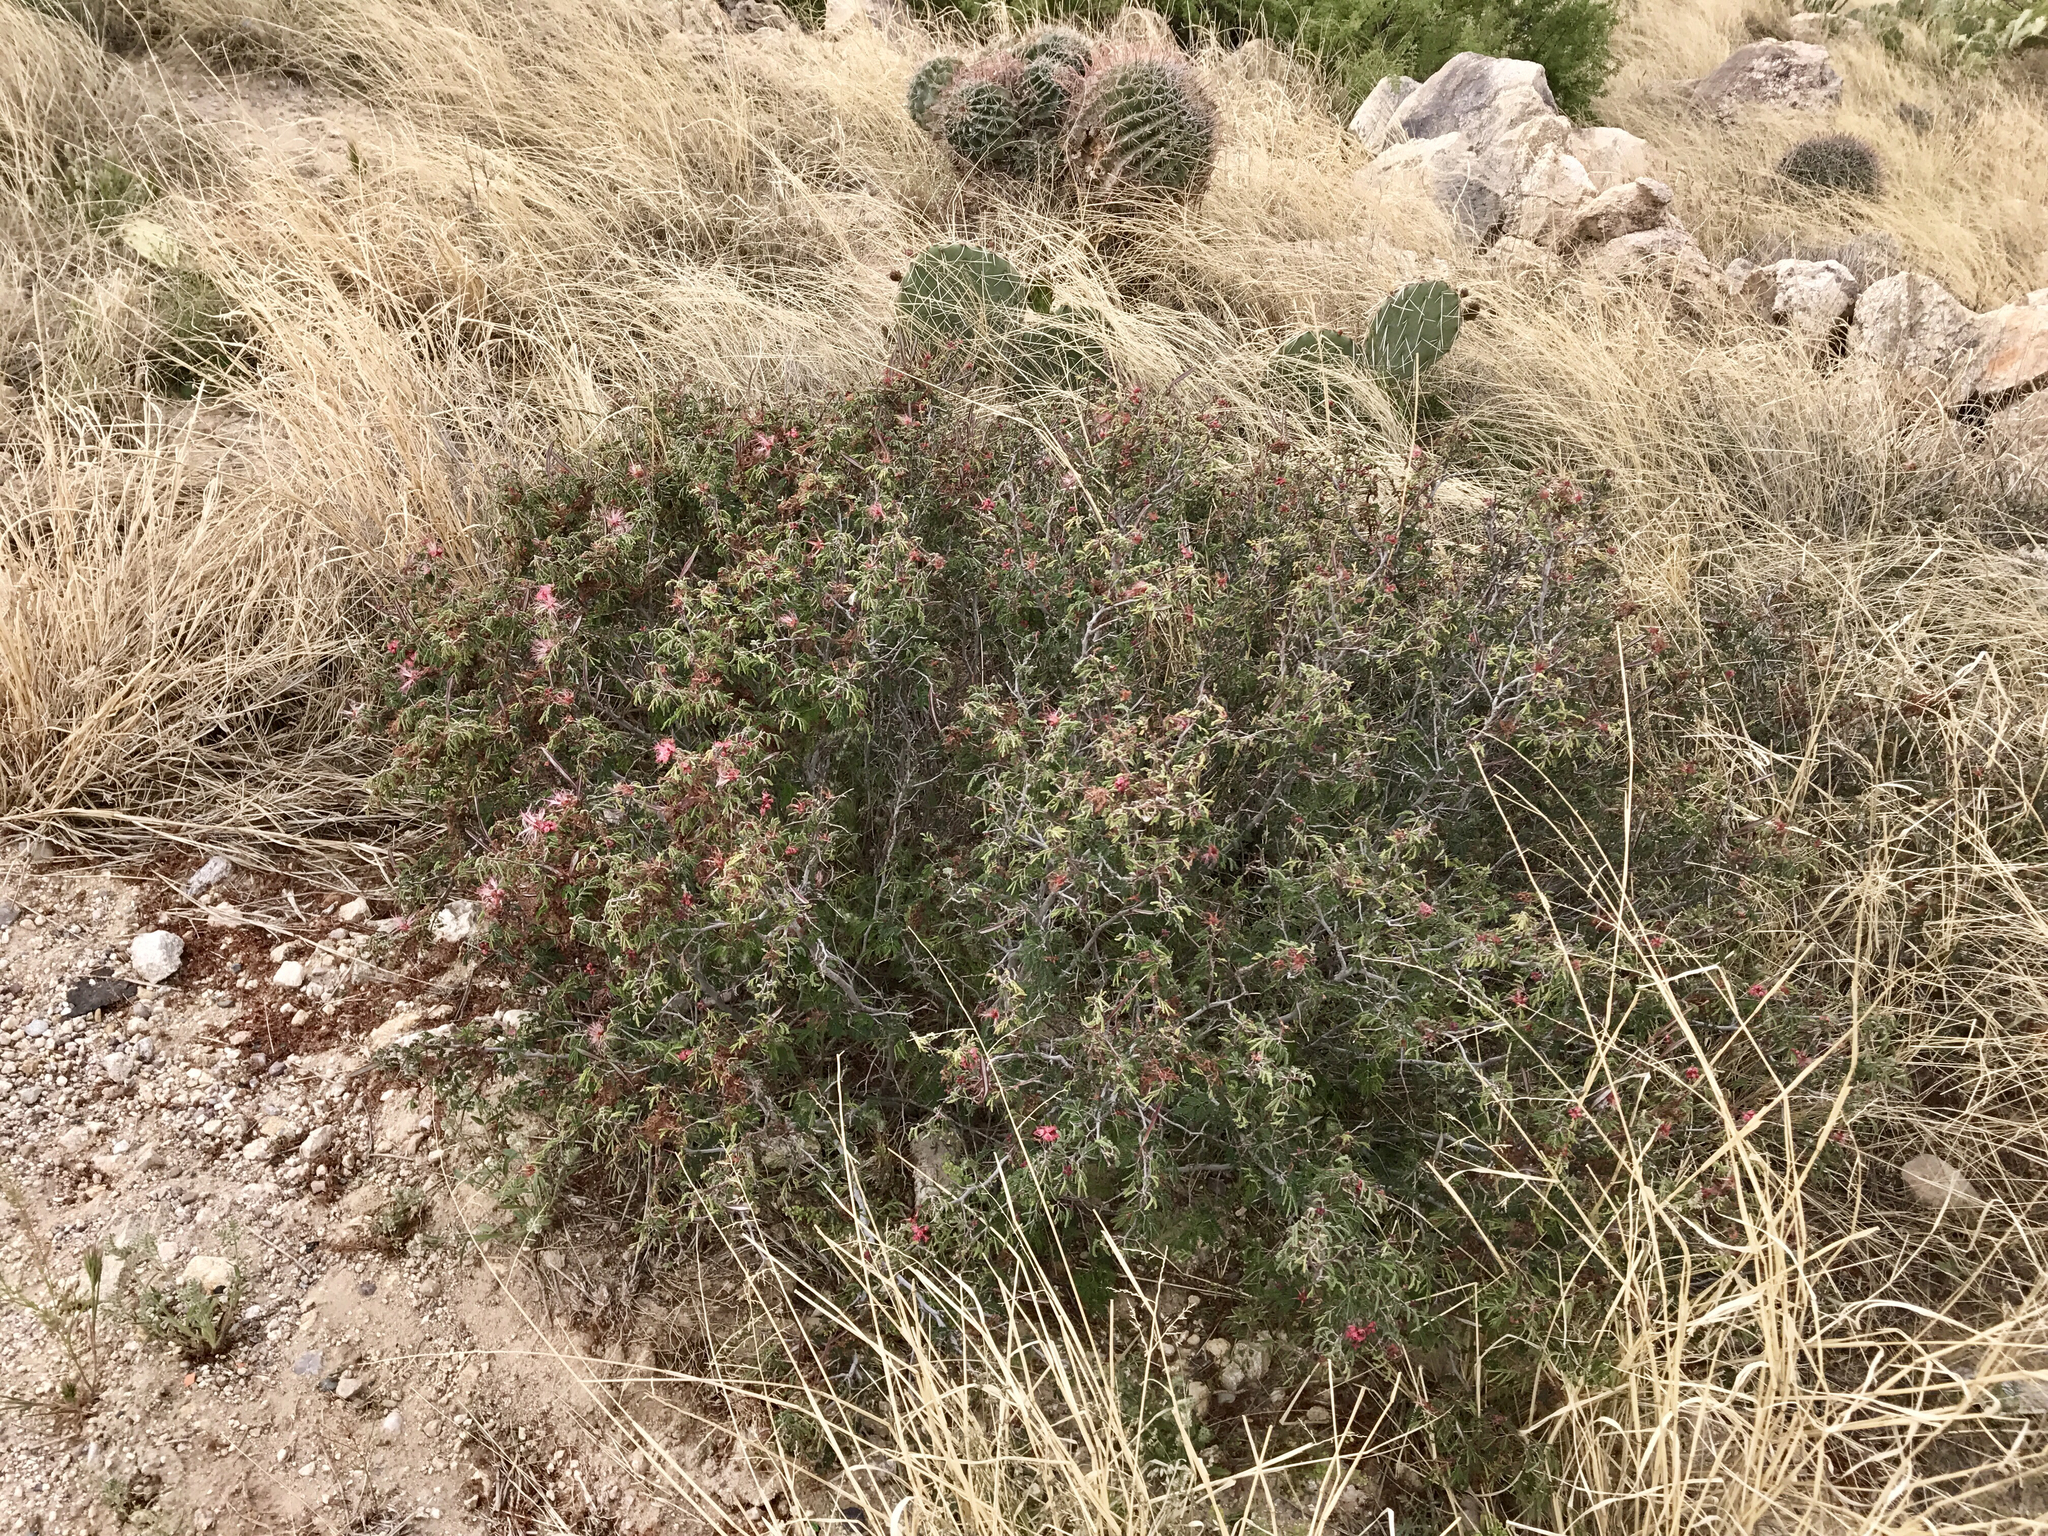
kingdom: Plantae
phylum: Tracheophyta
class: Magnoliopsida
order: Fabales
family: Fabaceae
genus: Calliandra
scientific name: Calliandra eriophylla
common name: Fairy-duster
